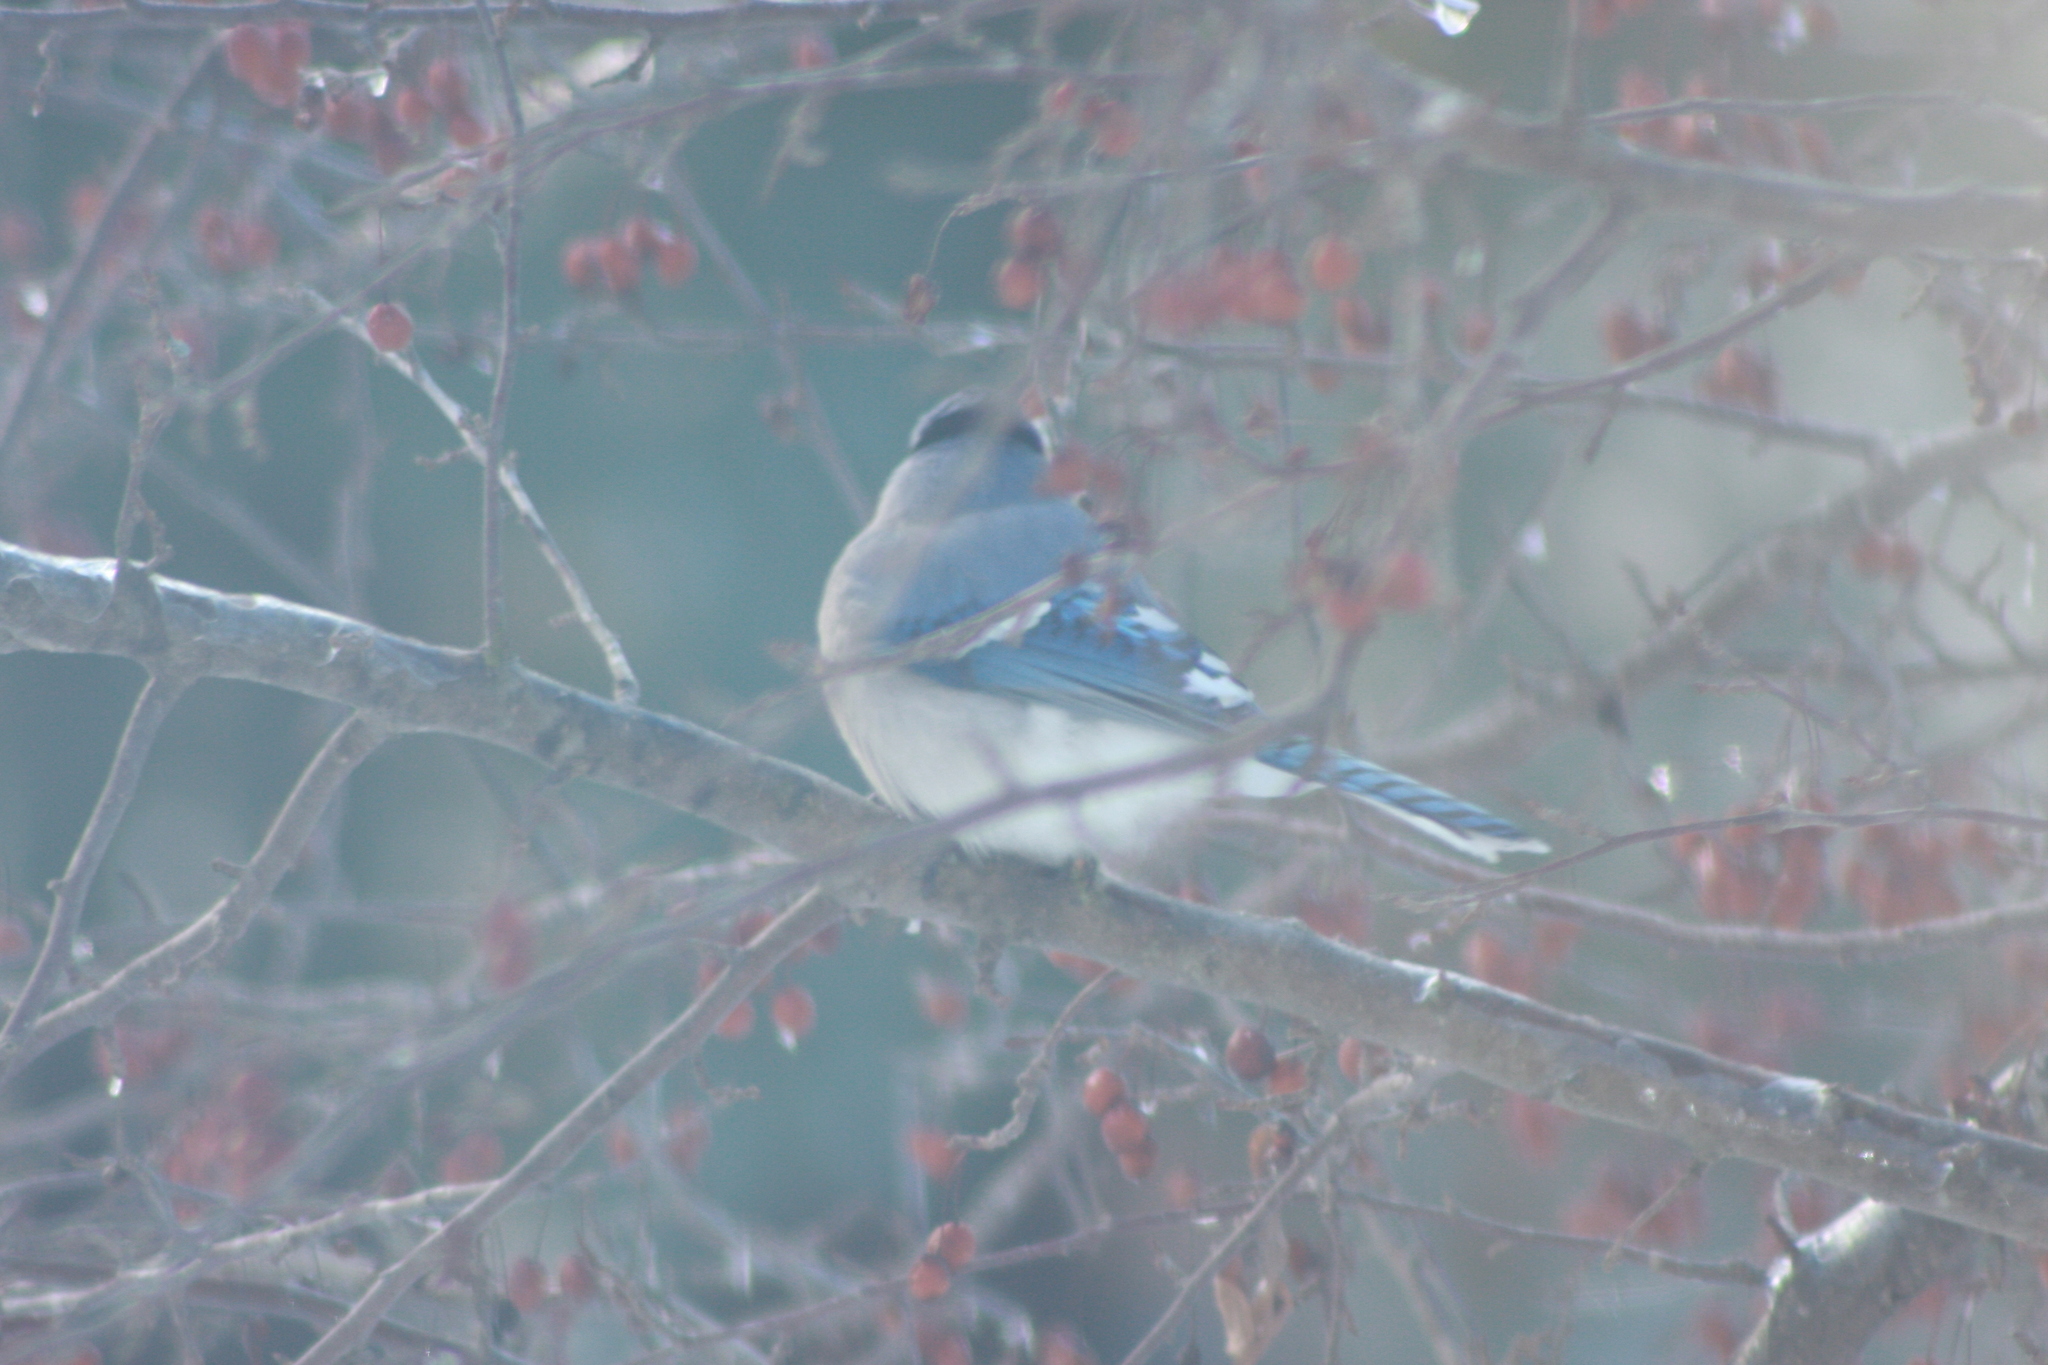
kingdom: Animalia
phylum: Chordata
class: Aves
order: Passeriformes
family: Corvidae
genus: Cyanocitta
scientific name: Cyanocitta cristata
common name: Blue jay
